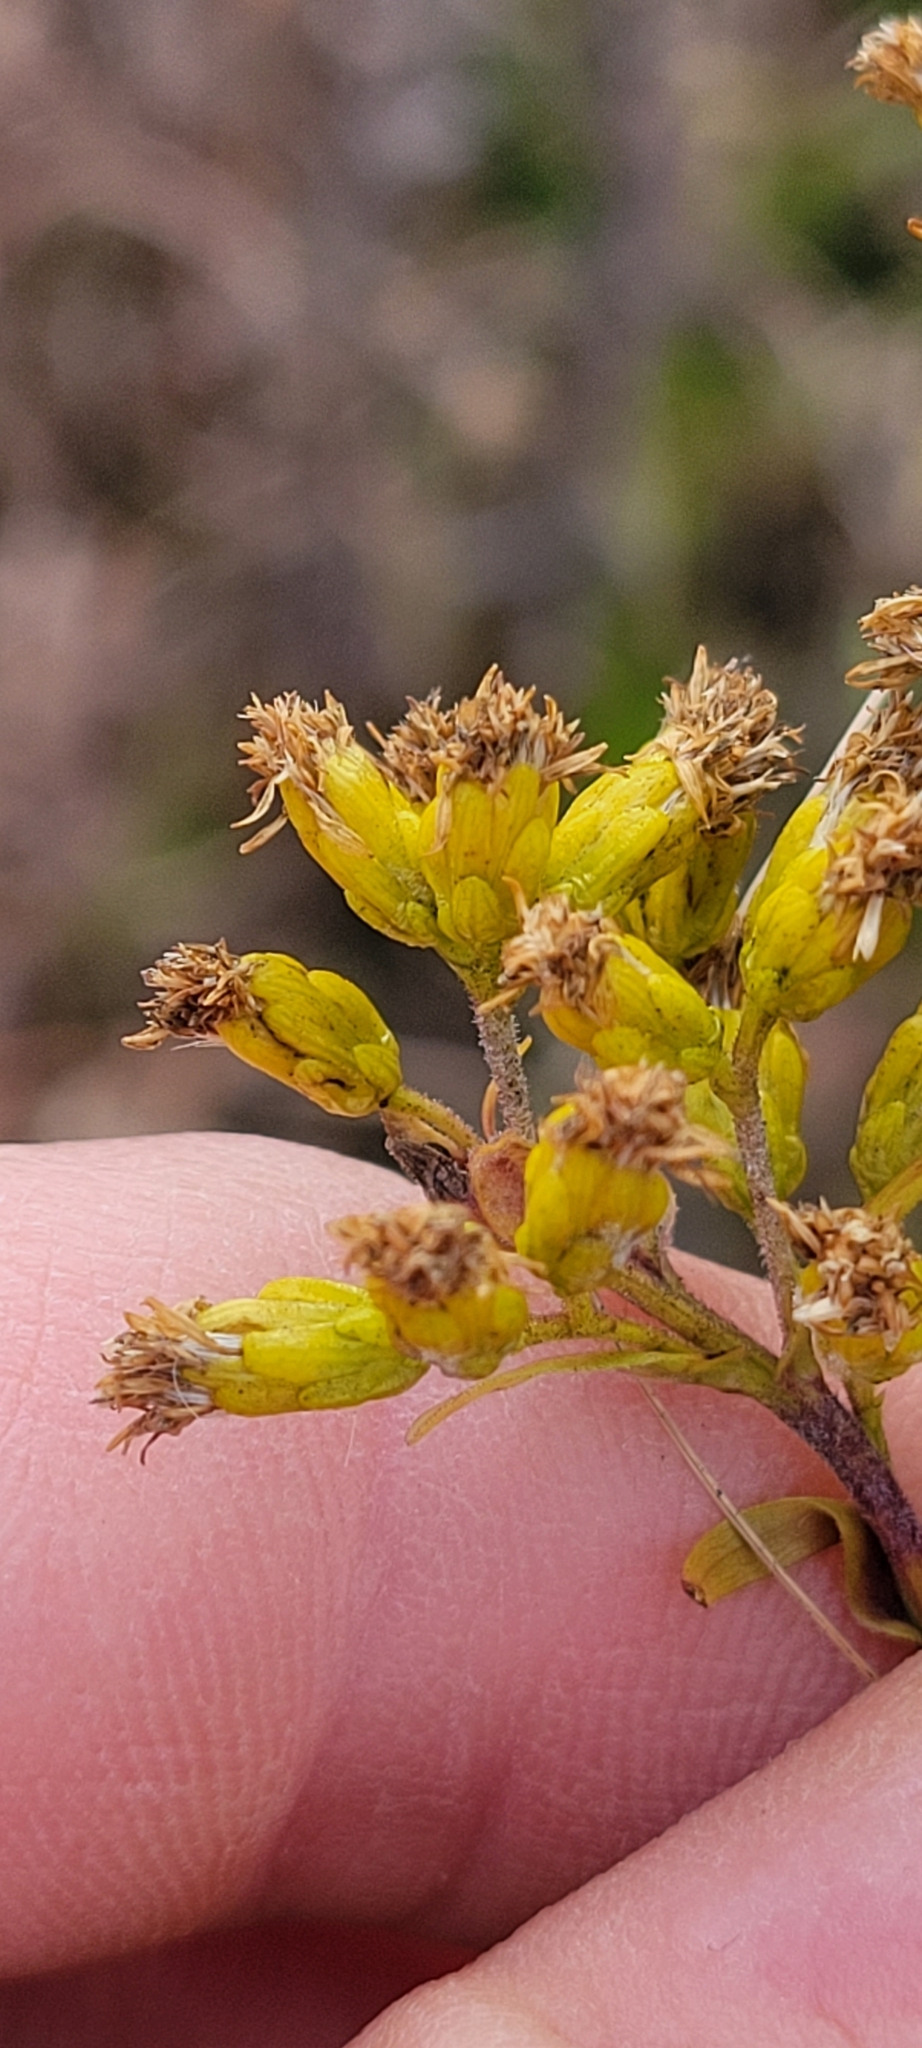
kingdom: Plantae
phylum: Tracheophyta
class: Magnoliopsida
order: Asterales
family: Asteraceae
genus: Solidago
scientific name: Solidago riddellii
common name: Riddell's goldenrod
